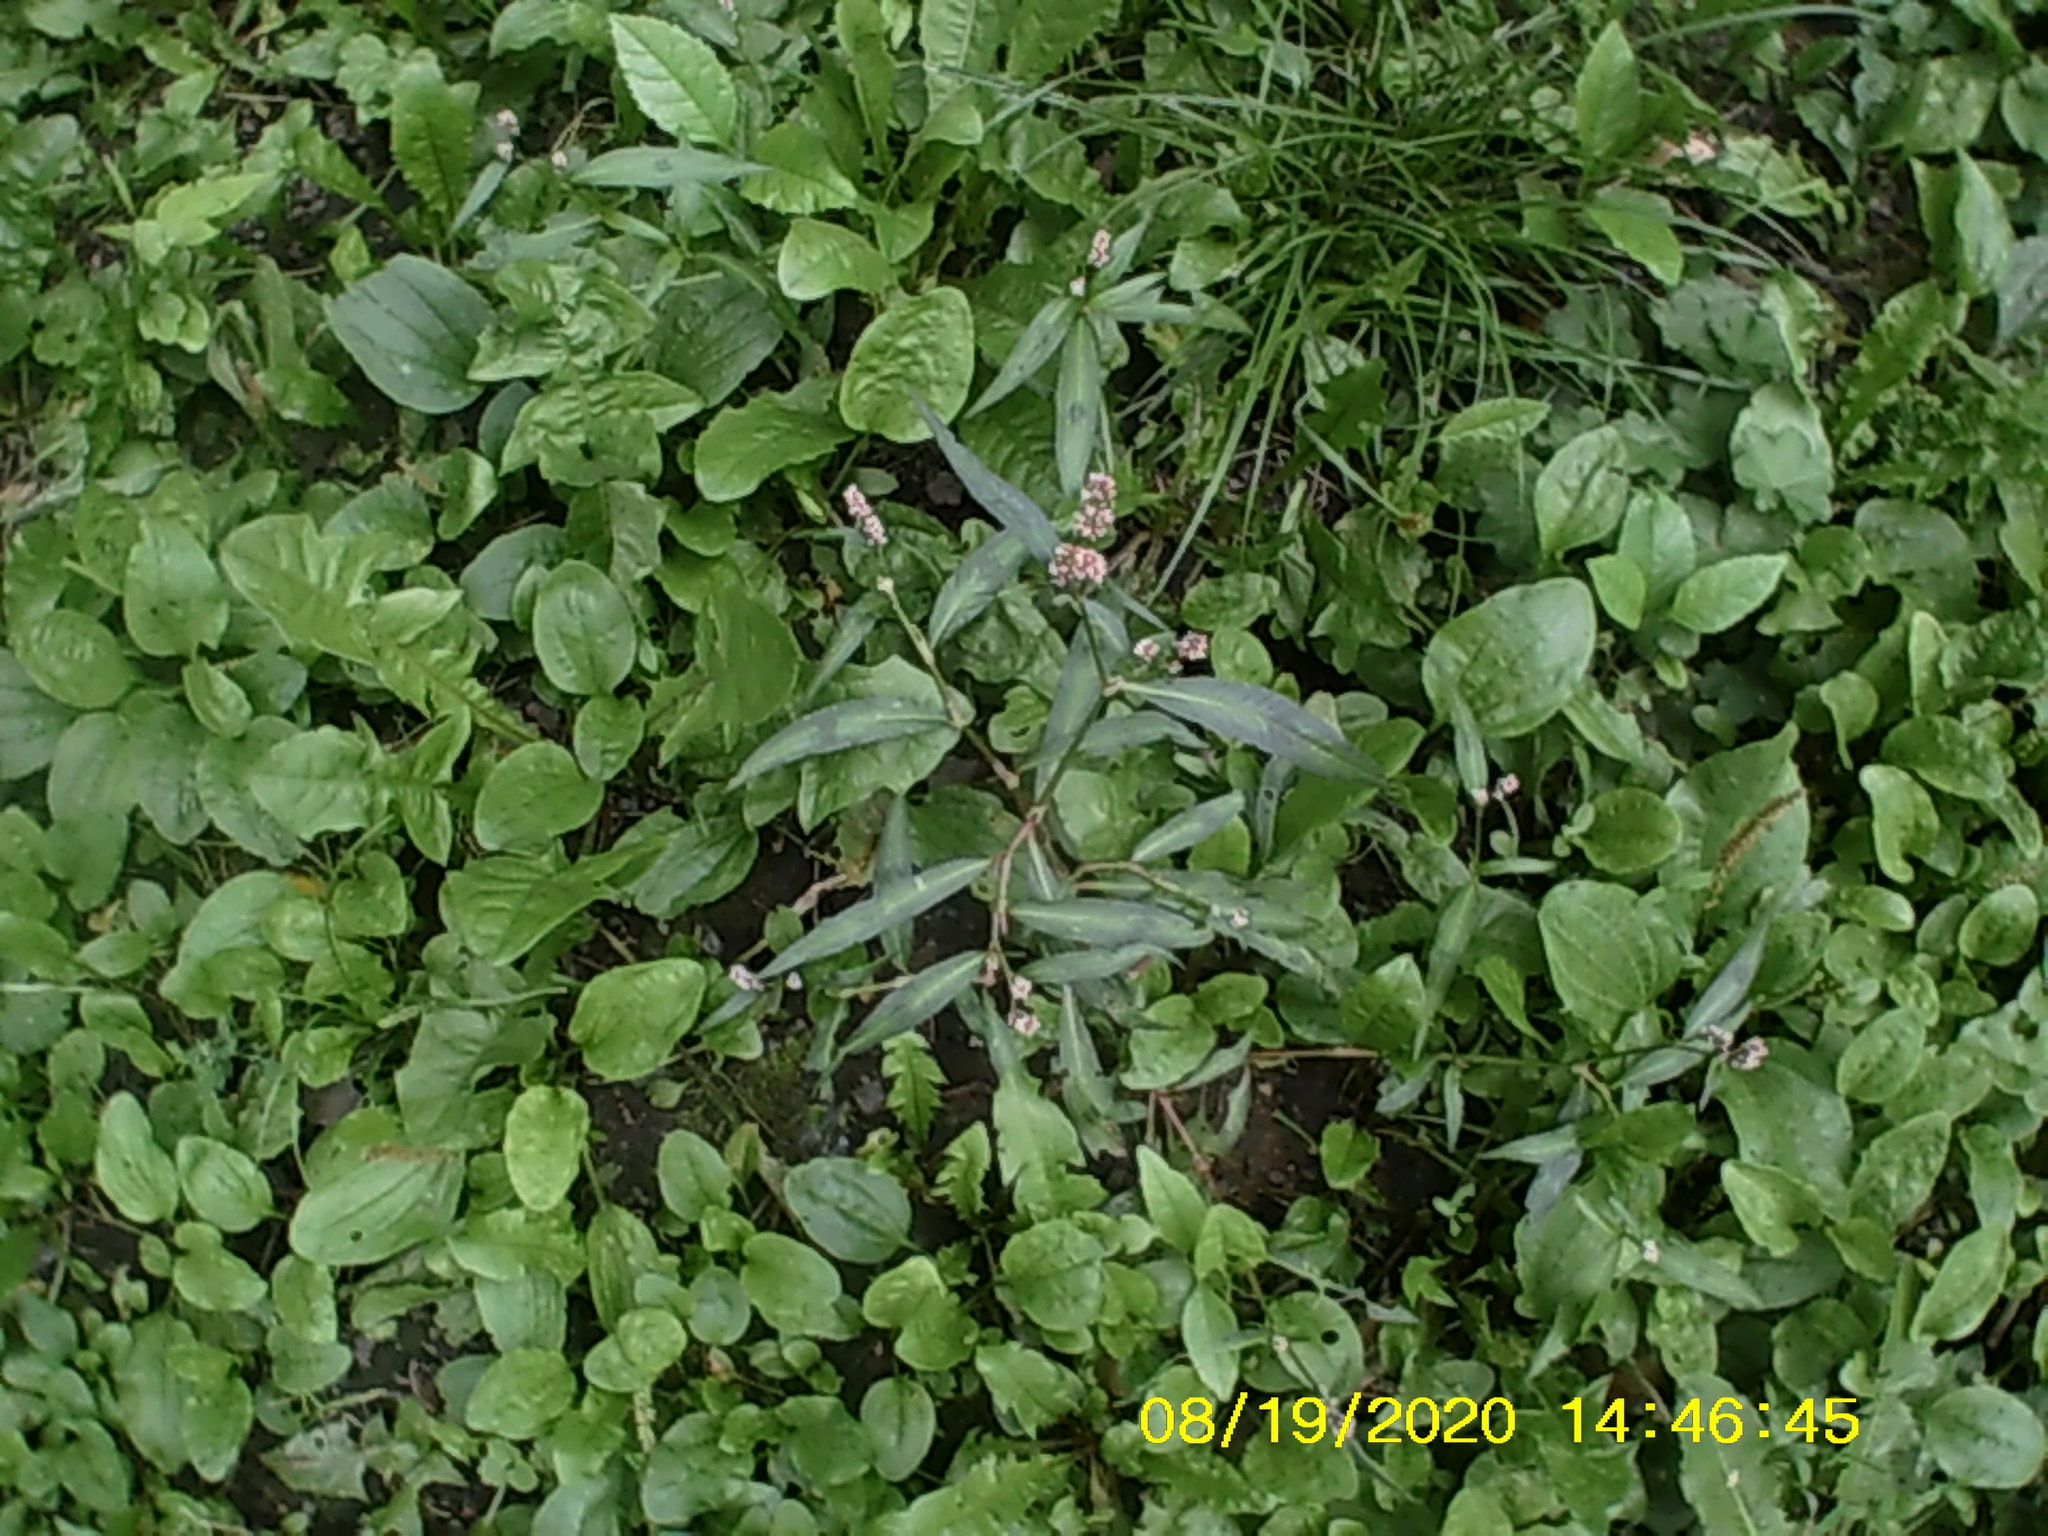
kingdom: Plantae
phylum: Tracheophyta
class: Magnoliopsida
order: Caryophyllales
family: Polygonaceae
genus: Persicaria
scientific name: Persicaria maculosa
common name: Redshank
